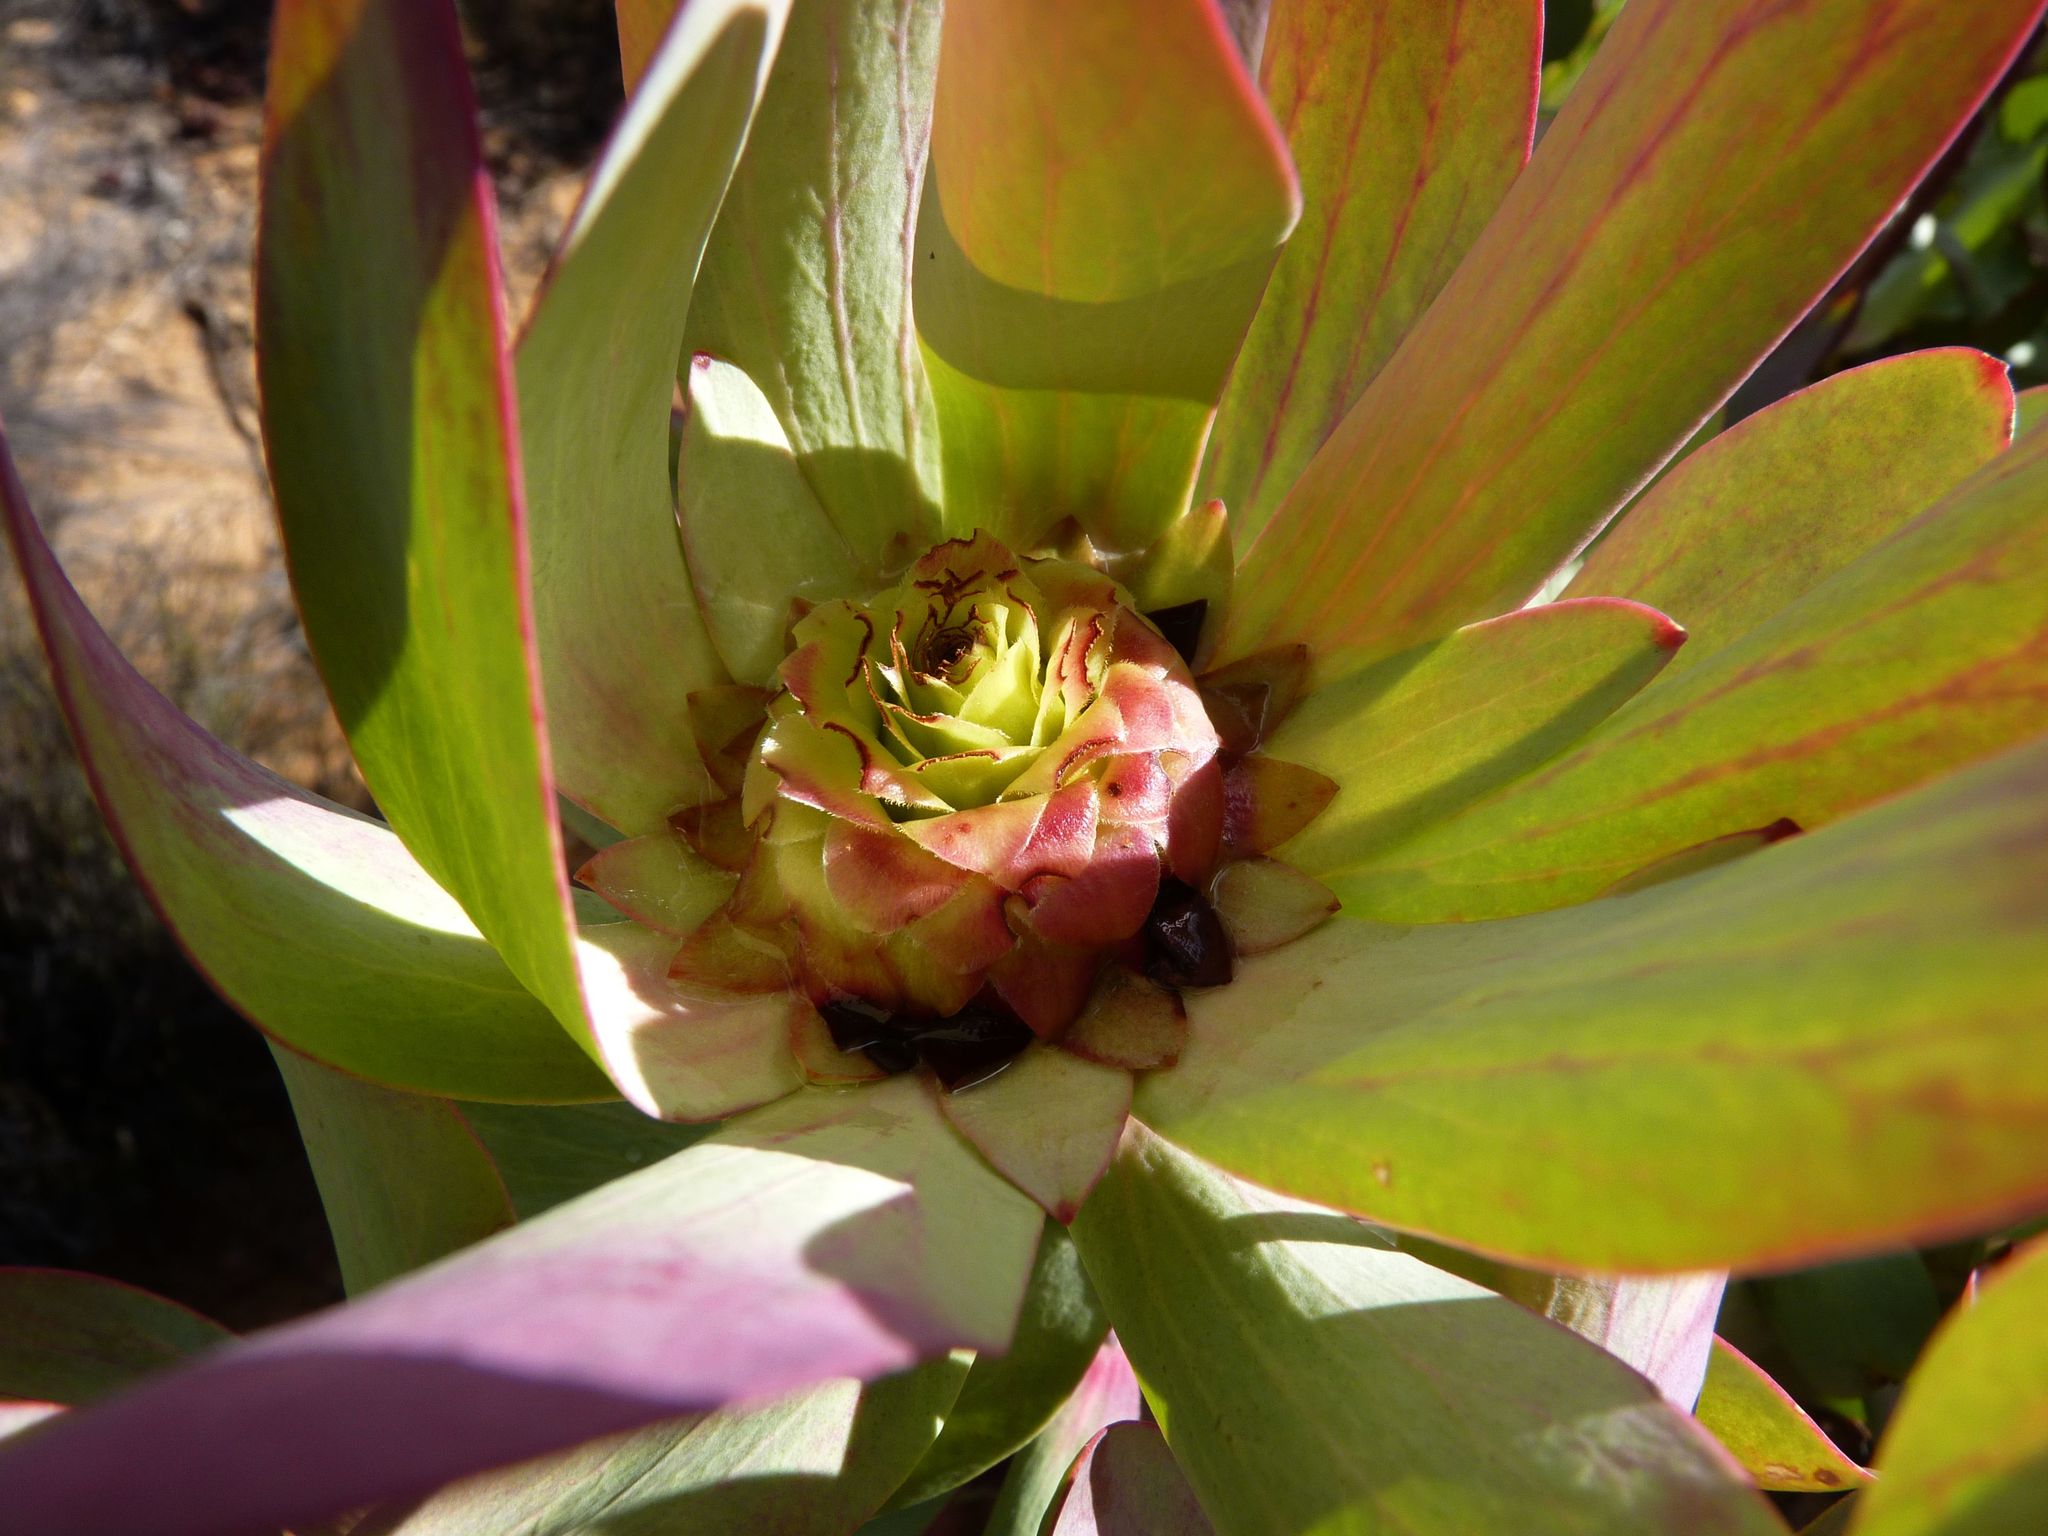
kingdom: Plantae
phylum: Tracheophyta
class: Magnoliopsida
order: Proteales
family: Proteaceae
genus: Leucadendron
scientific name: Leucadendron tinctum
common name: Spicy conebush
